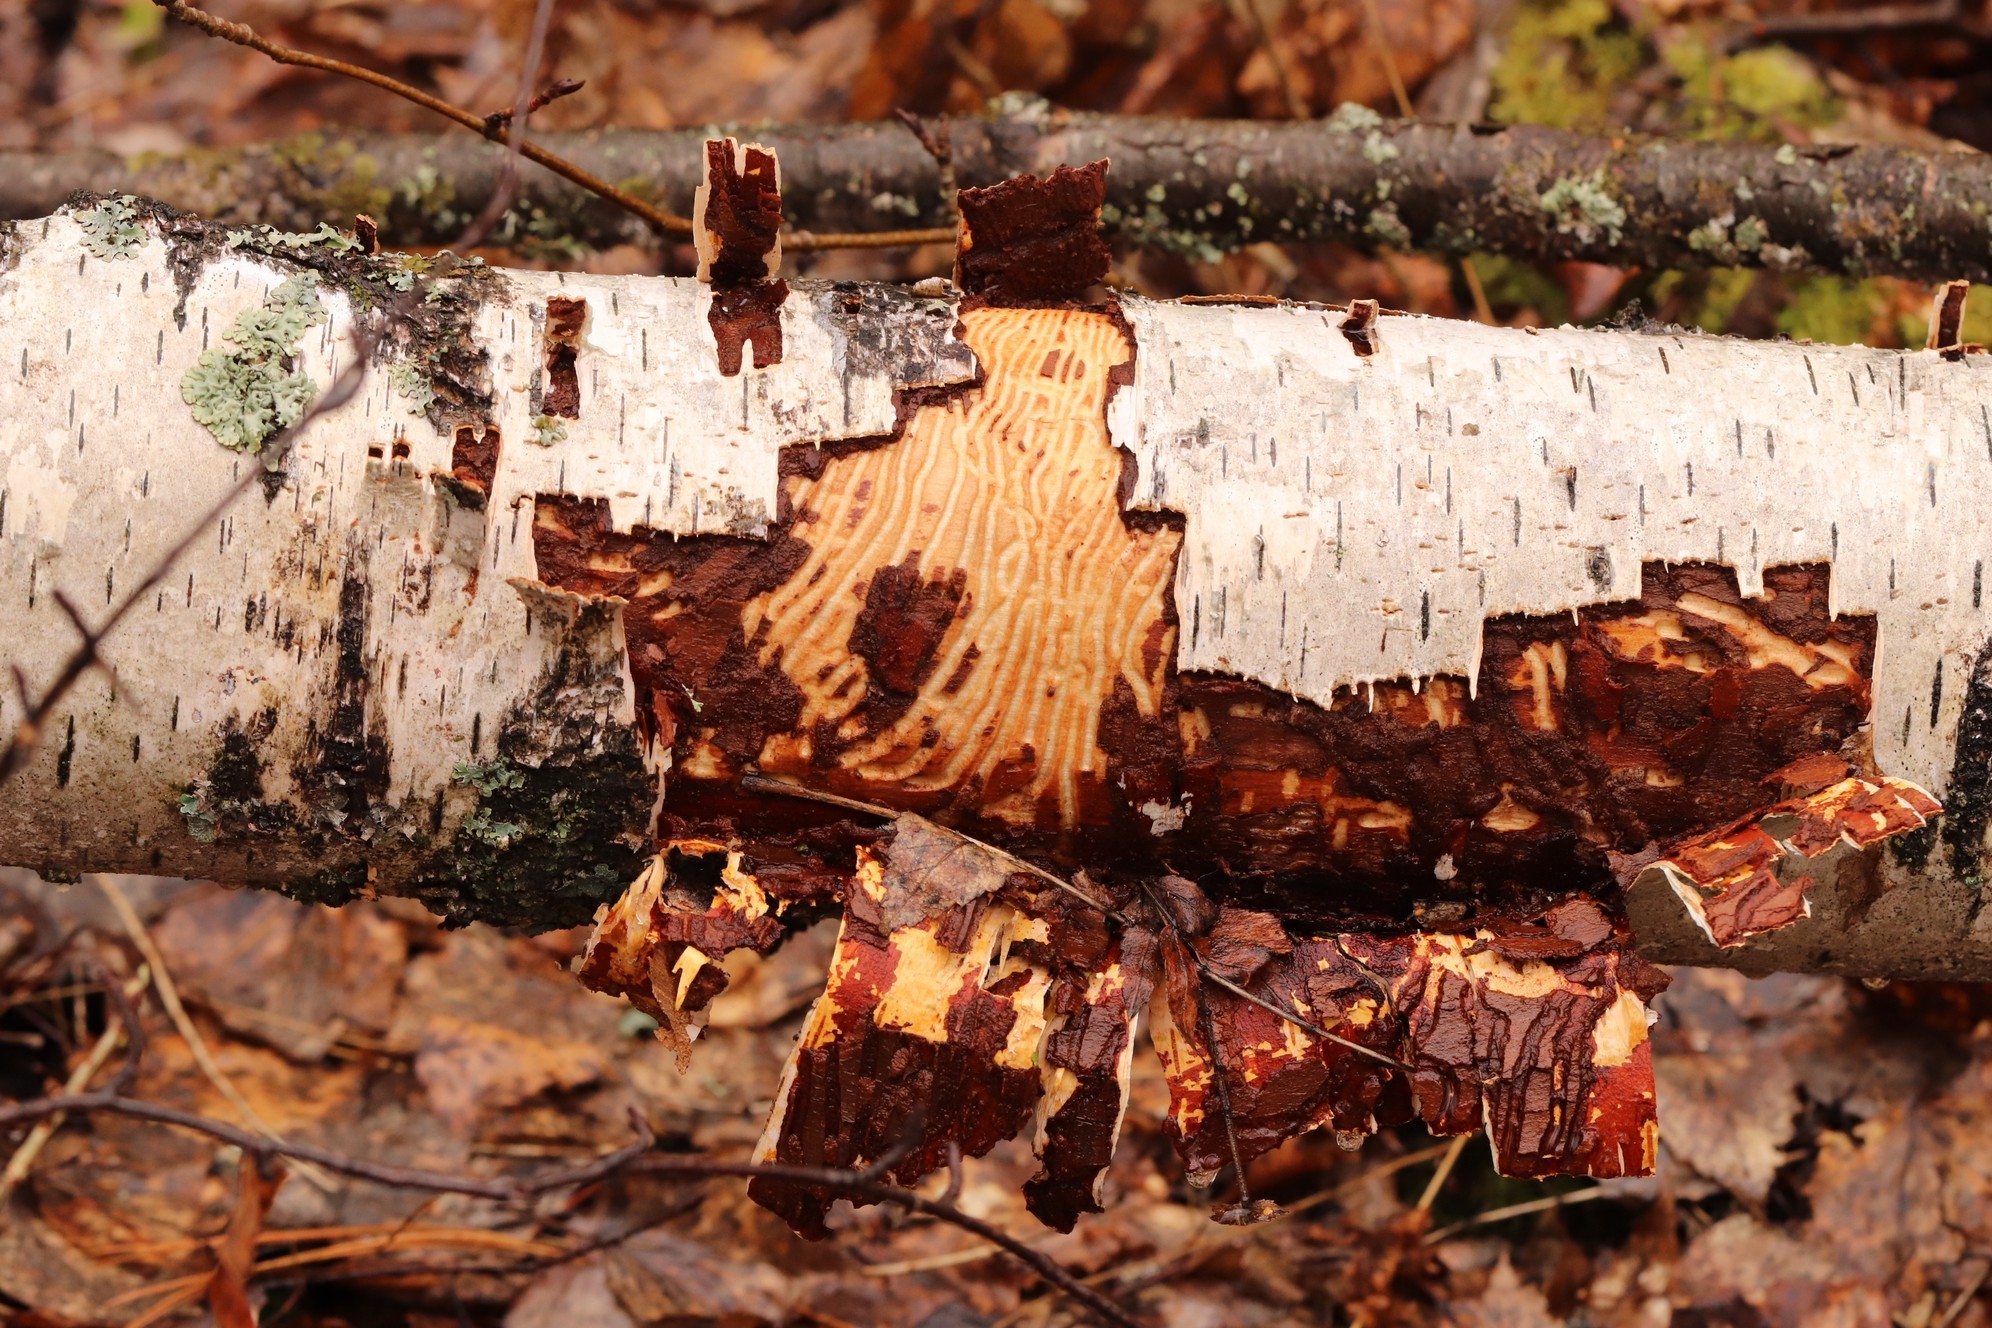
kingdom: Animalia
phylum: Arthropoda
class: Insecta
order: Coleoptera
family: Curculionidae
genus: Scolytus
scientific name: Scolytus ratzeburgii
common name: Birch bark beetle
